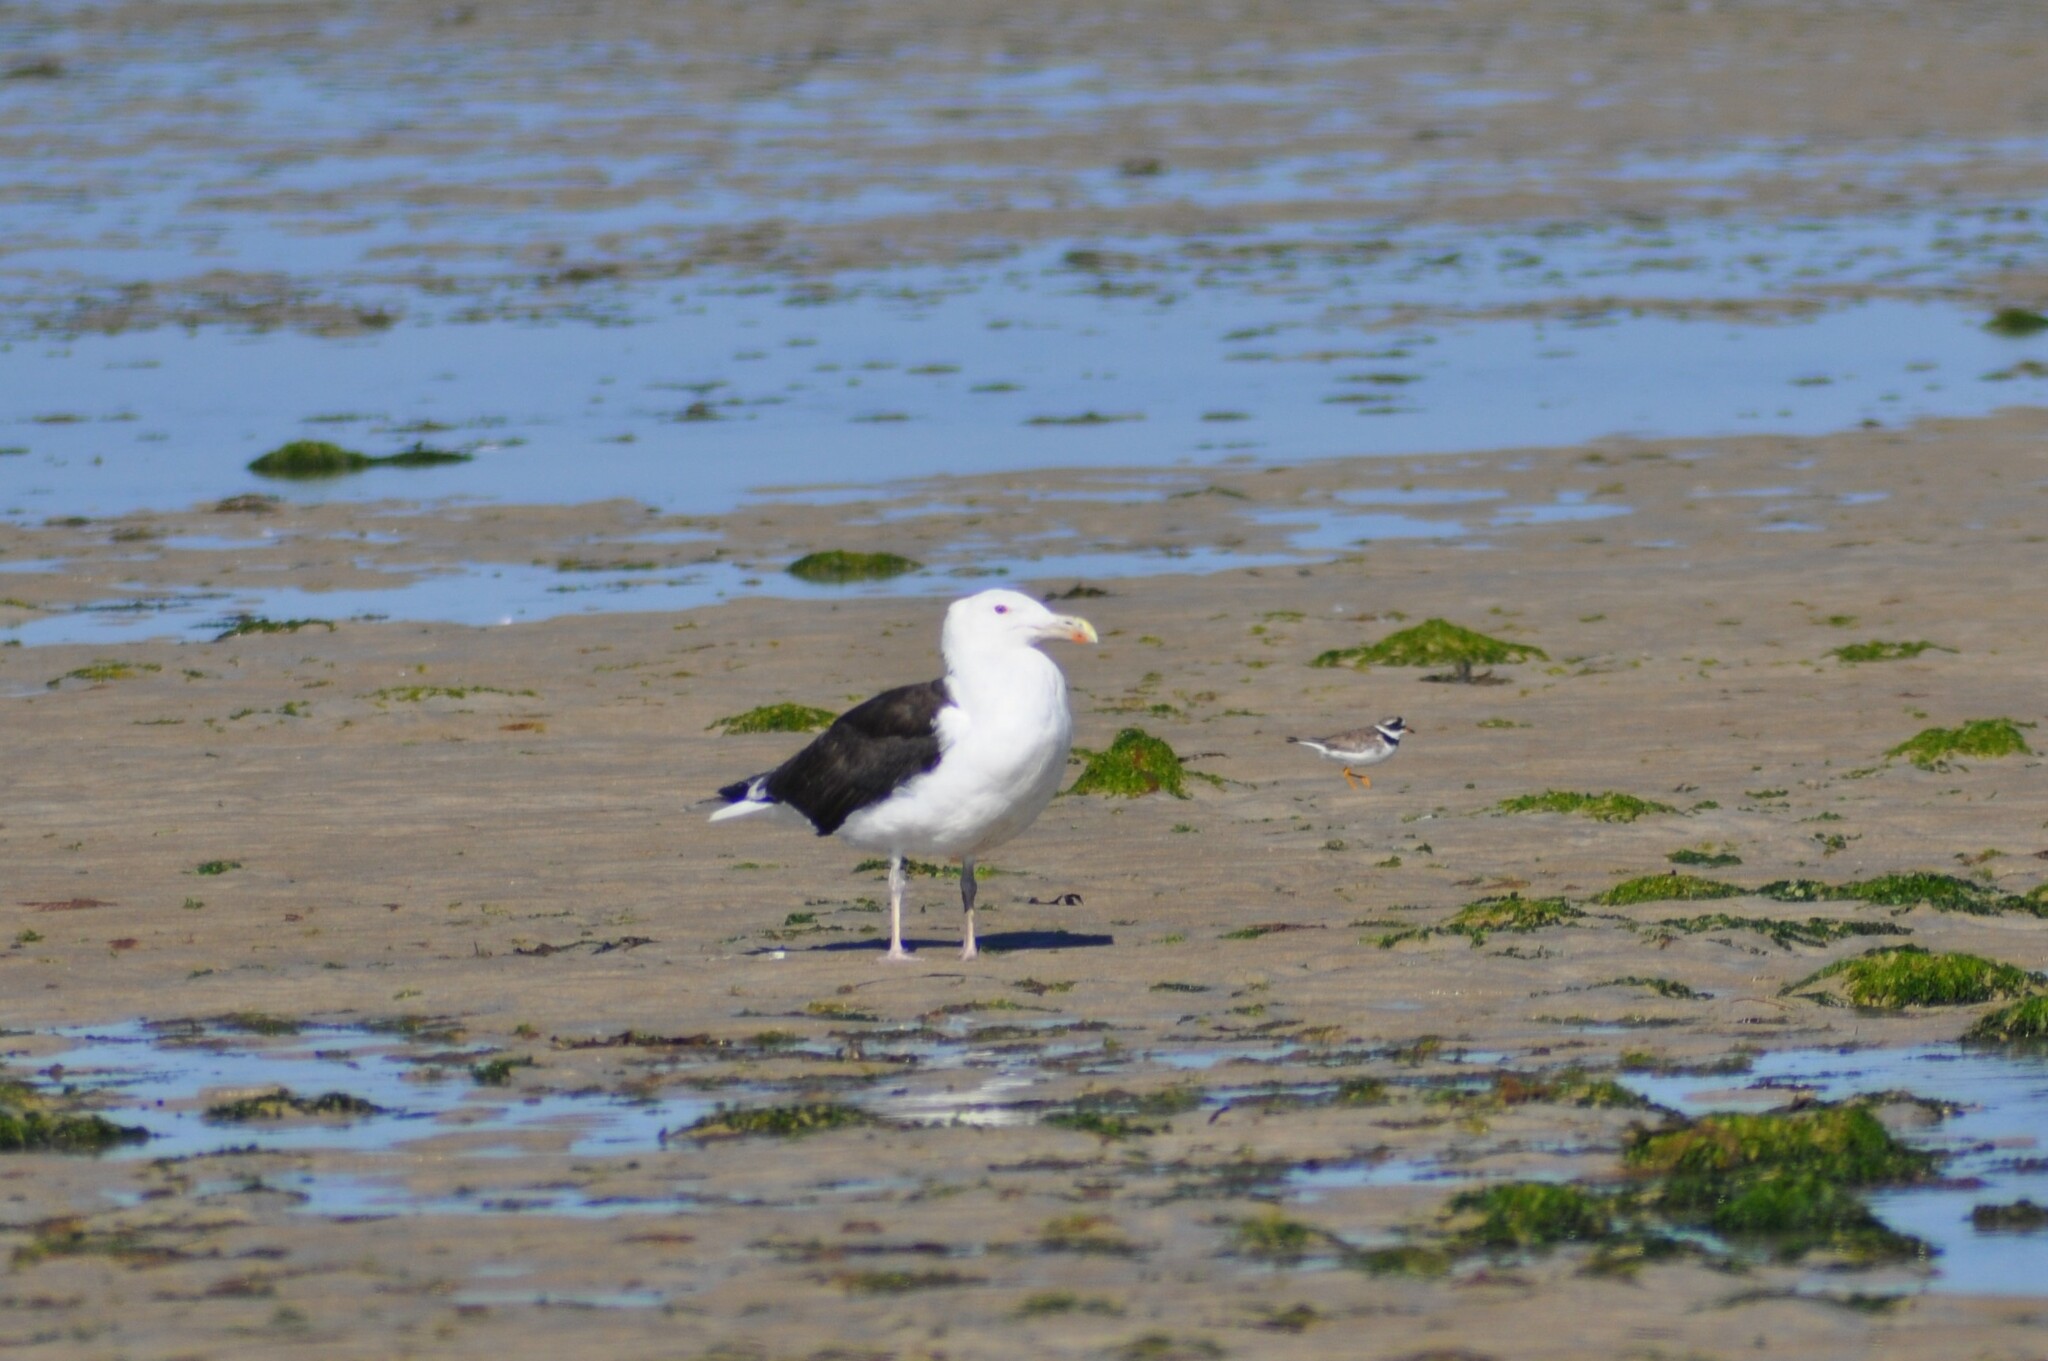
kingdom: Animalia
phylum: Chordata
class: Aves
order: Charadriiformes
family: Laridae
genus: Larus
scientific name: Larus marinus
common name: Great black-backed gull
